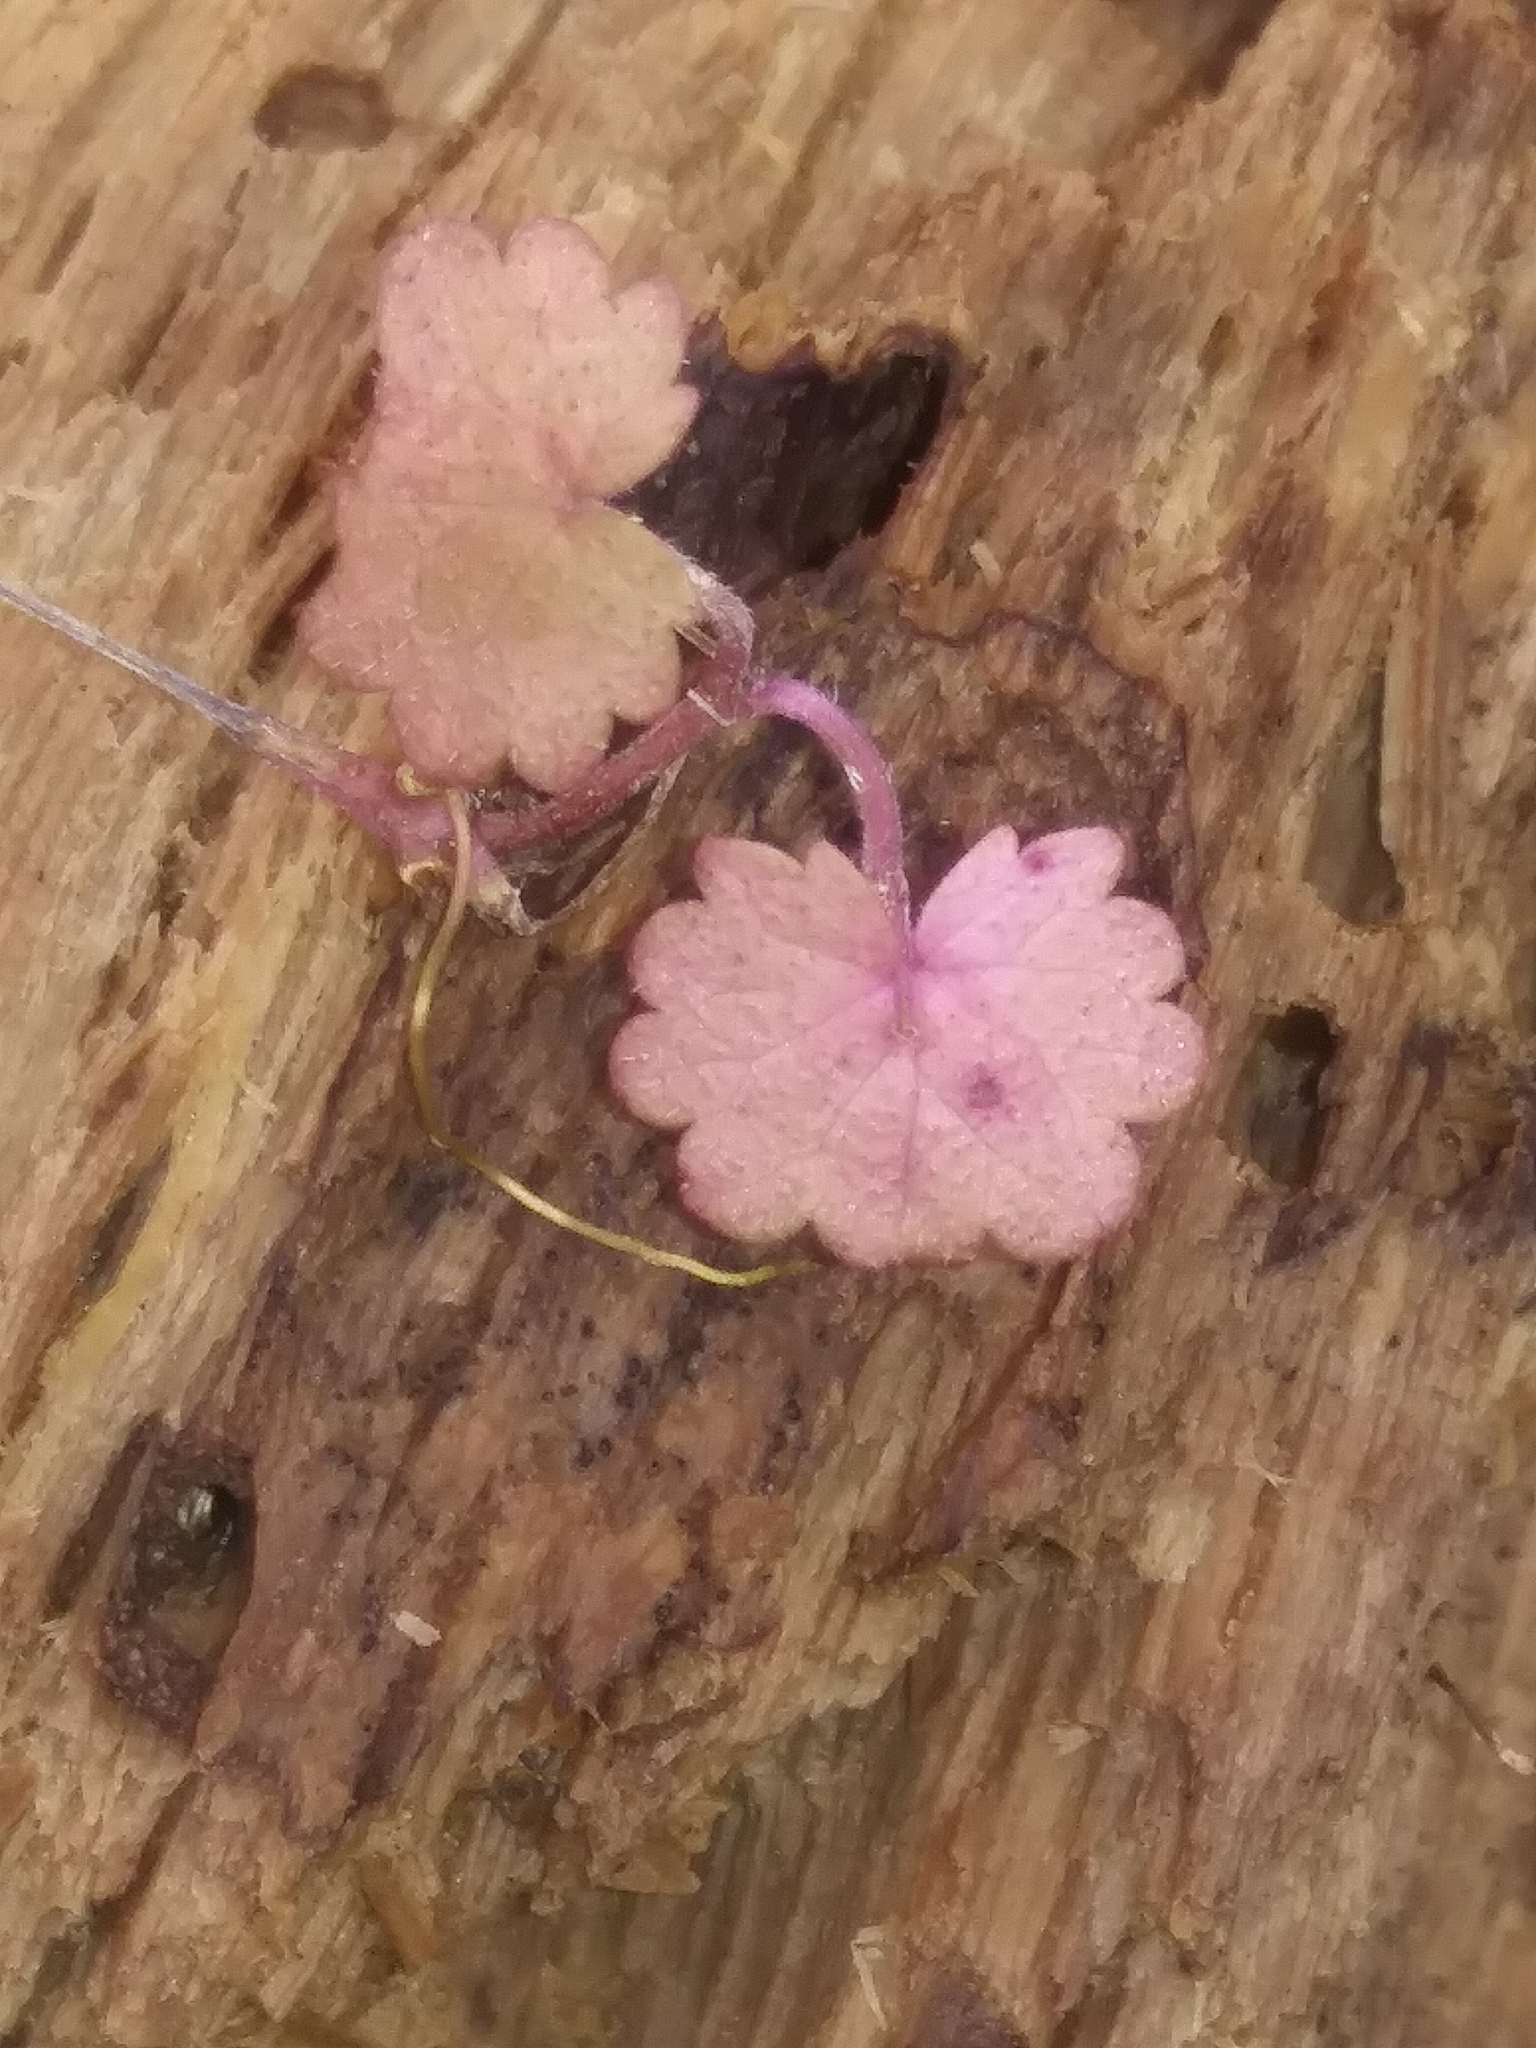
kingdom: Plantae
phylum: Tracheophyta
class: Magnoliopsida
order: Lamiales
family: Lamiaceae
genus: Glechoma
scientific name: Glechoma hederacea
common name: Ground ivy
